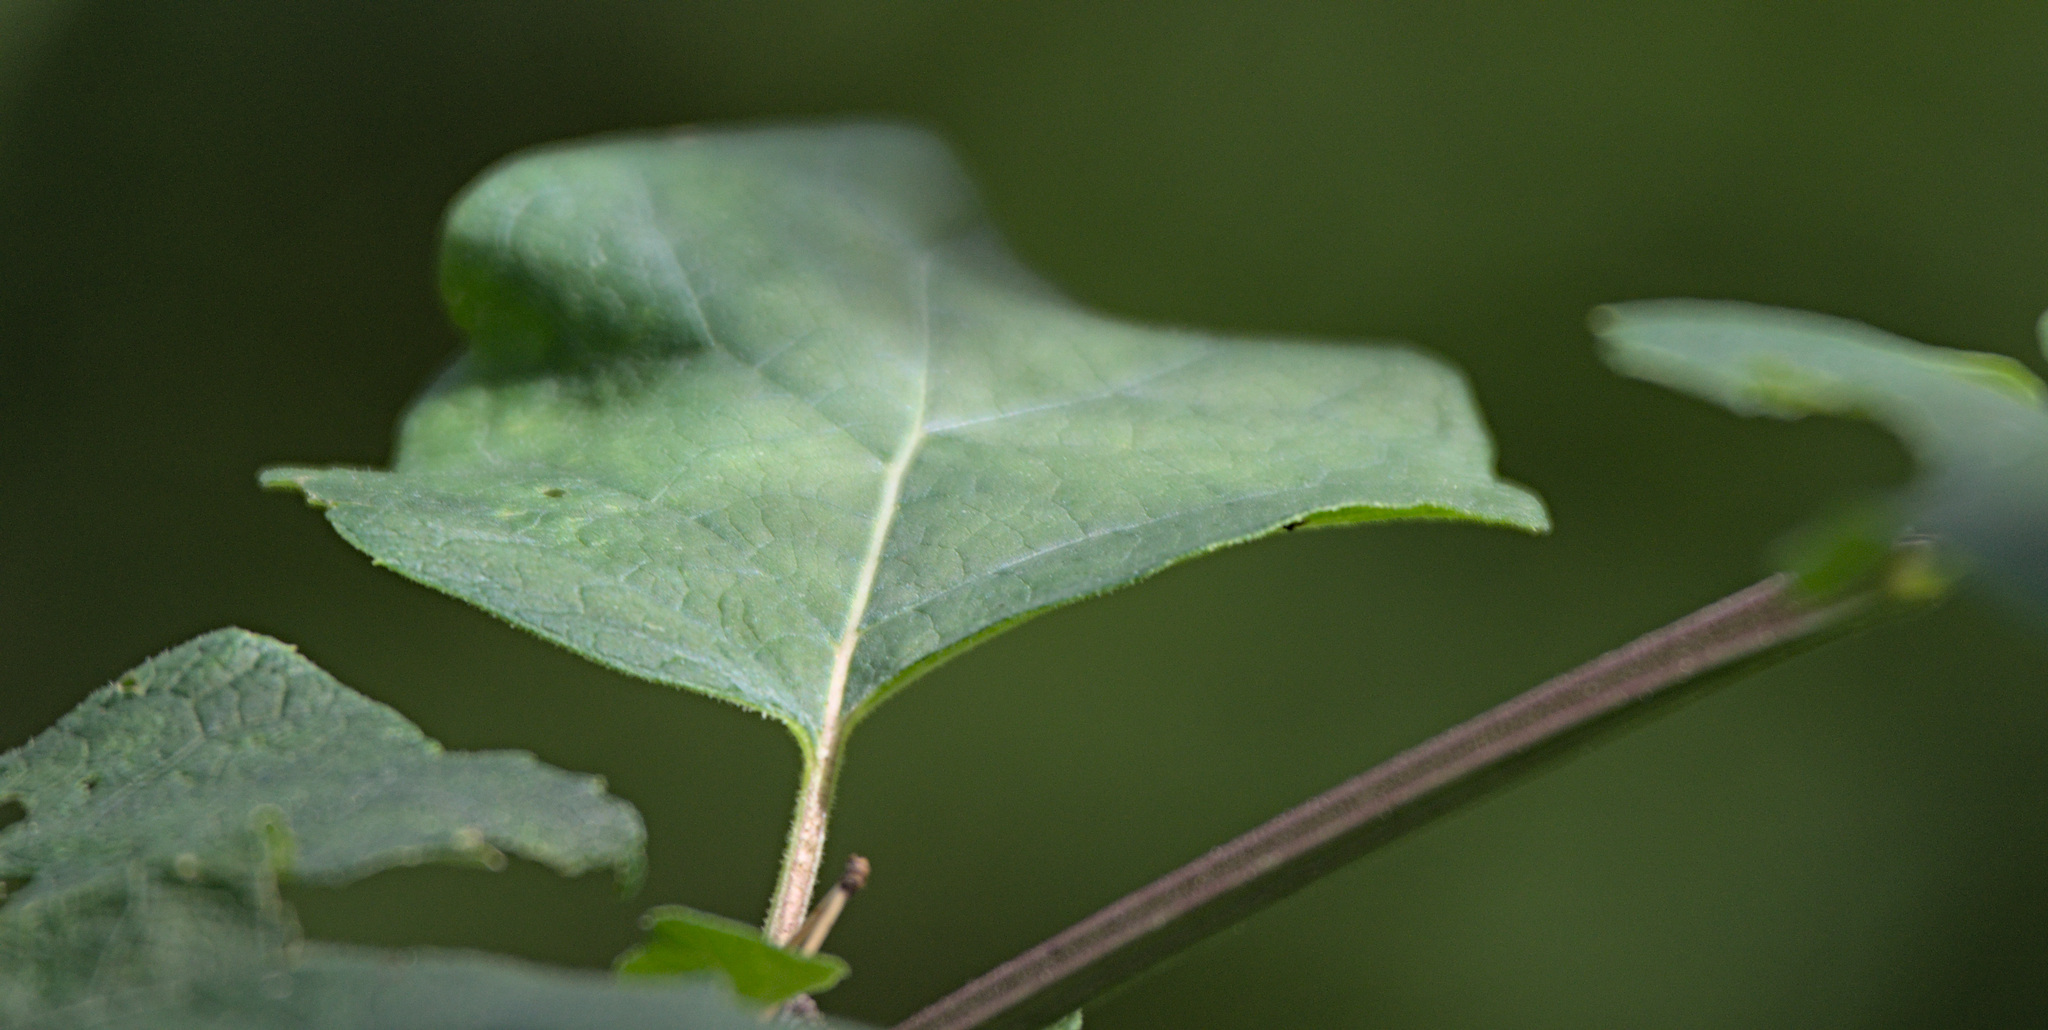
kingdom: Plantae
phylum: Tracheophyta
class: Magnoliopsida
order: Asterales
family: Asteraceae
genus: Arctium
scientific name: Arctium tomentosum
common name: Woolly burdock
